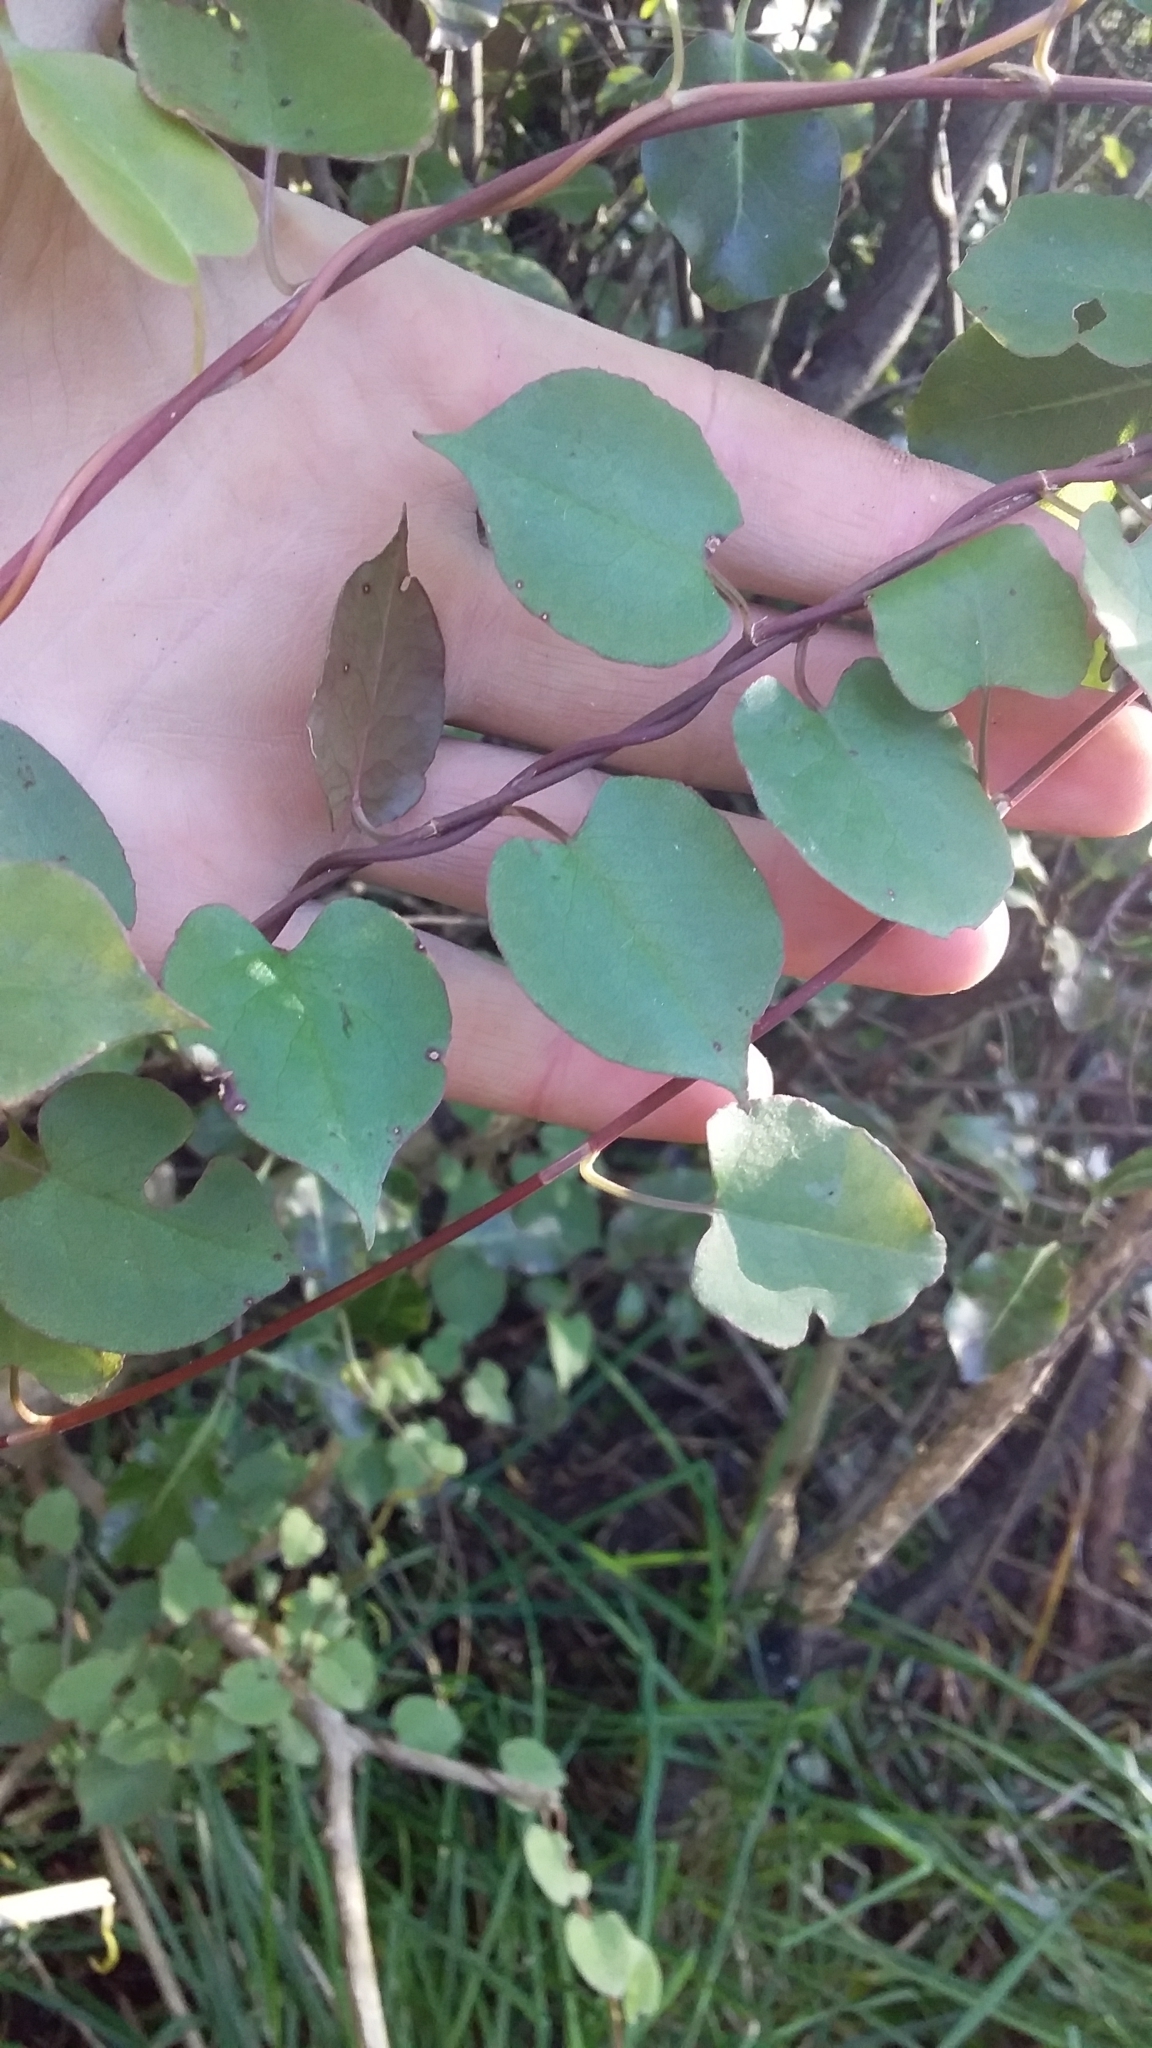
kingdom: Plantae
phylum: Tracheophyta
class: Magnoliopsida
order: Caryophyllales
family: Polygonaceae
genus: Muehlenbeckia
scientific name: Muehlenbeckia australis
